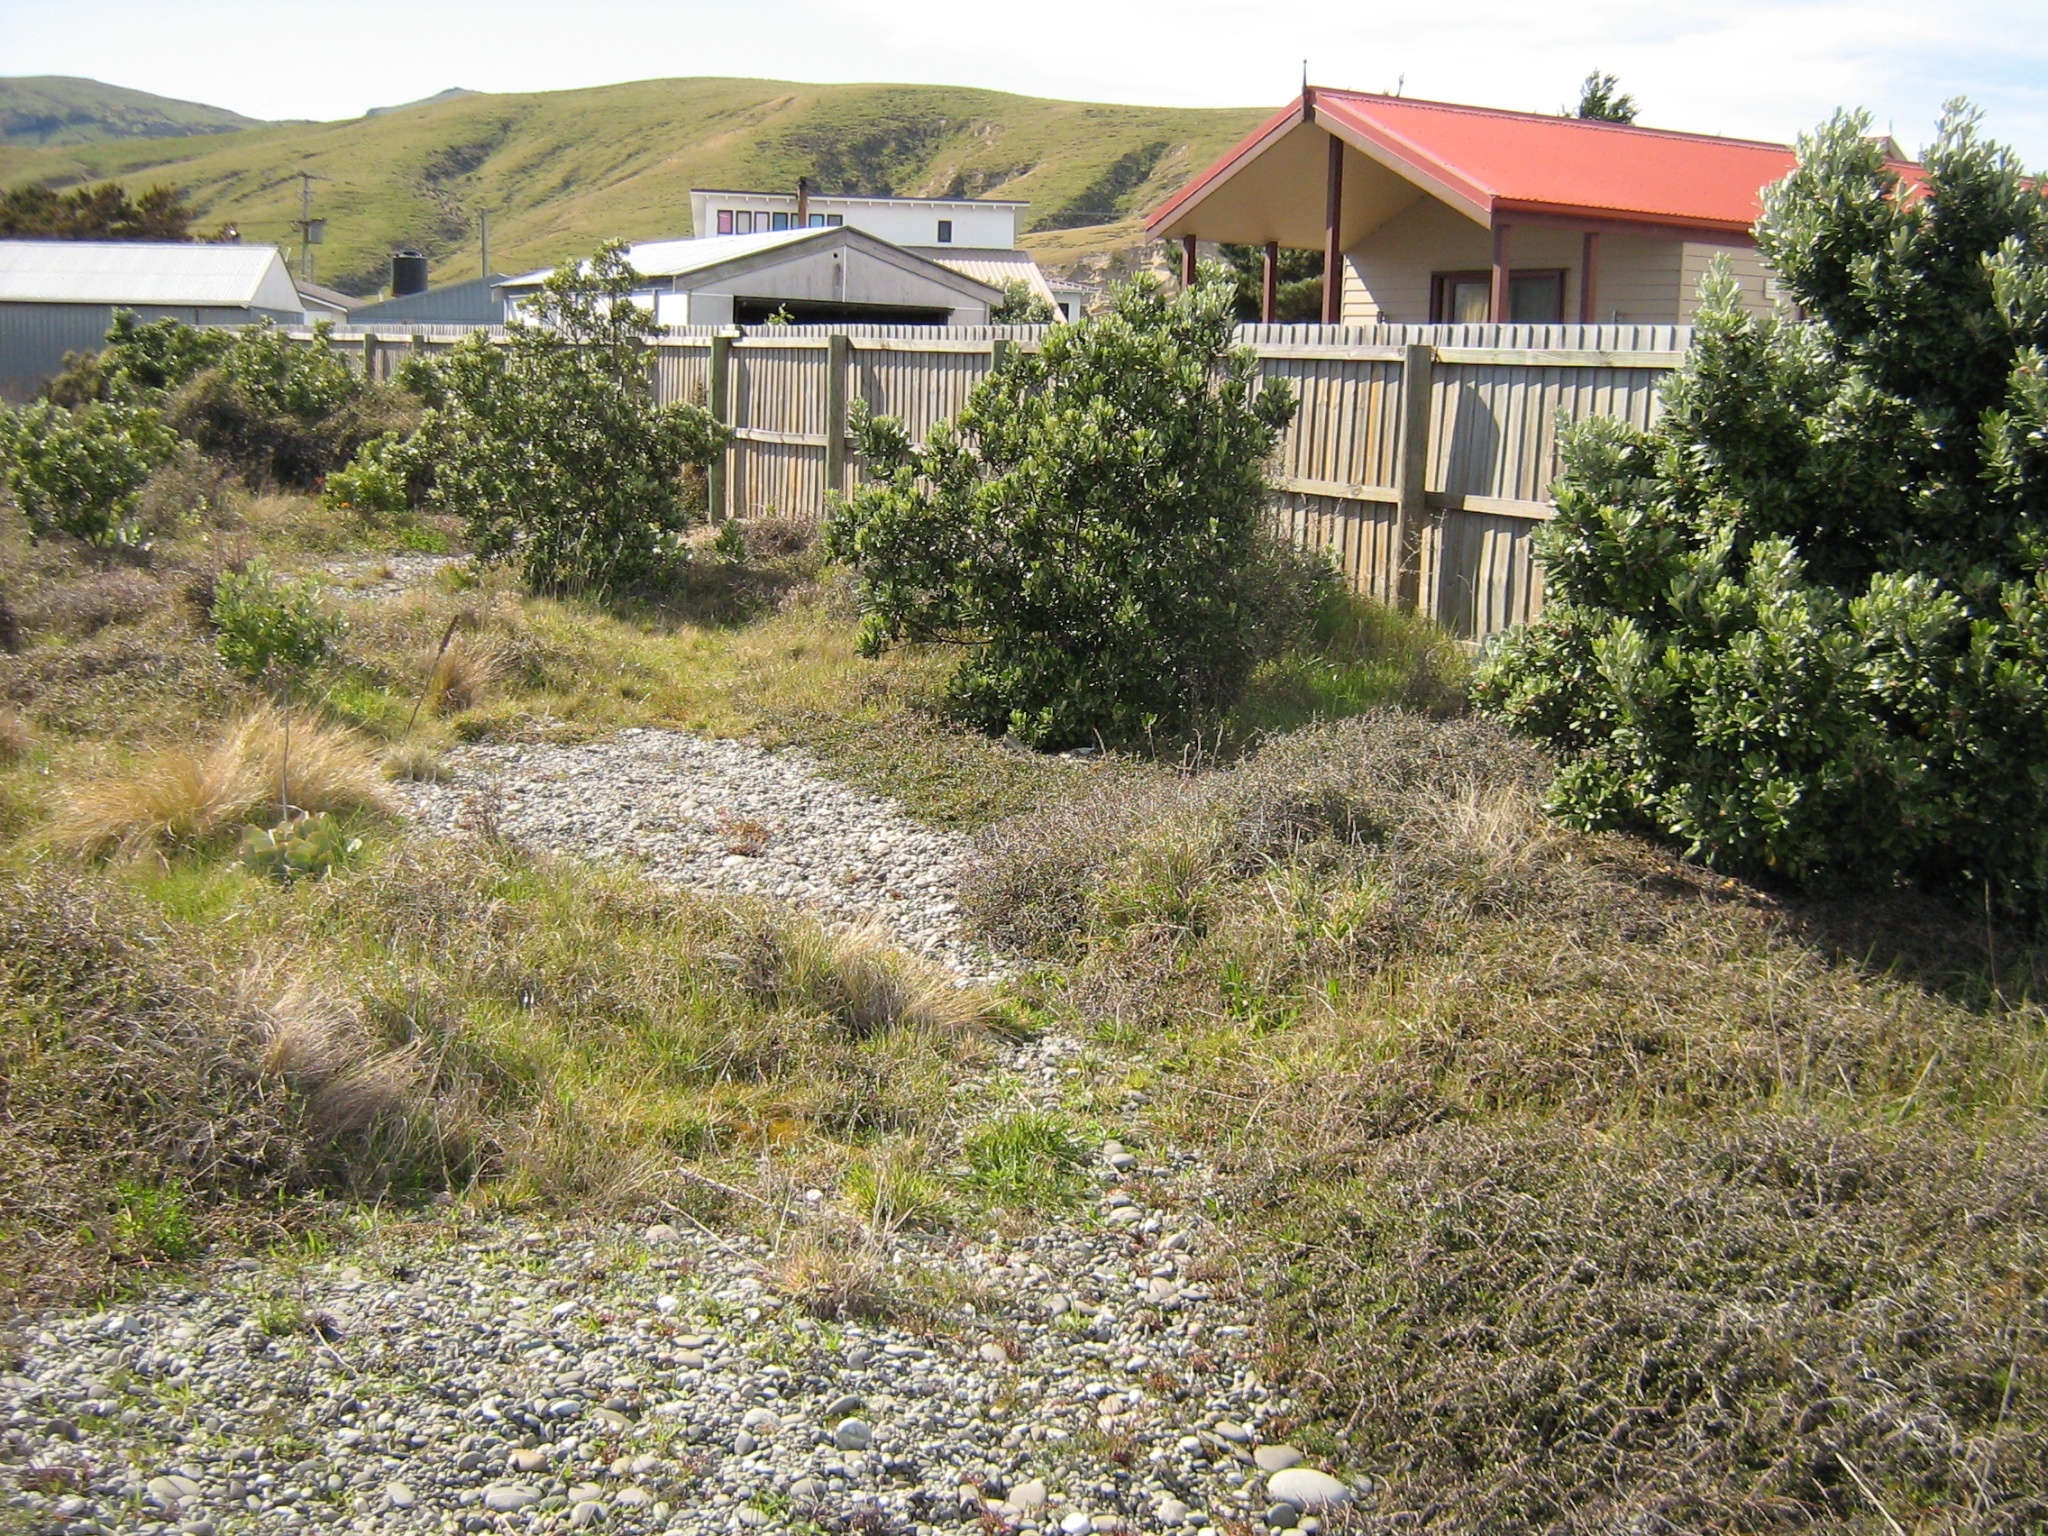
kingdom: Plantae
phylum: Tracheophyta
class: Magnoliopsida
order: Apiales
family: Pittosporaceae
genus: Pittosporum
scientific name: Pittosporum crassifolium
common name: Karo
